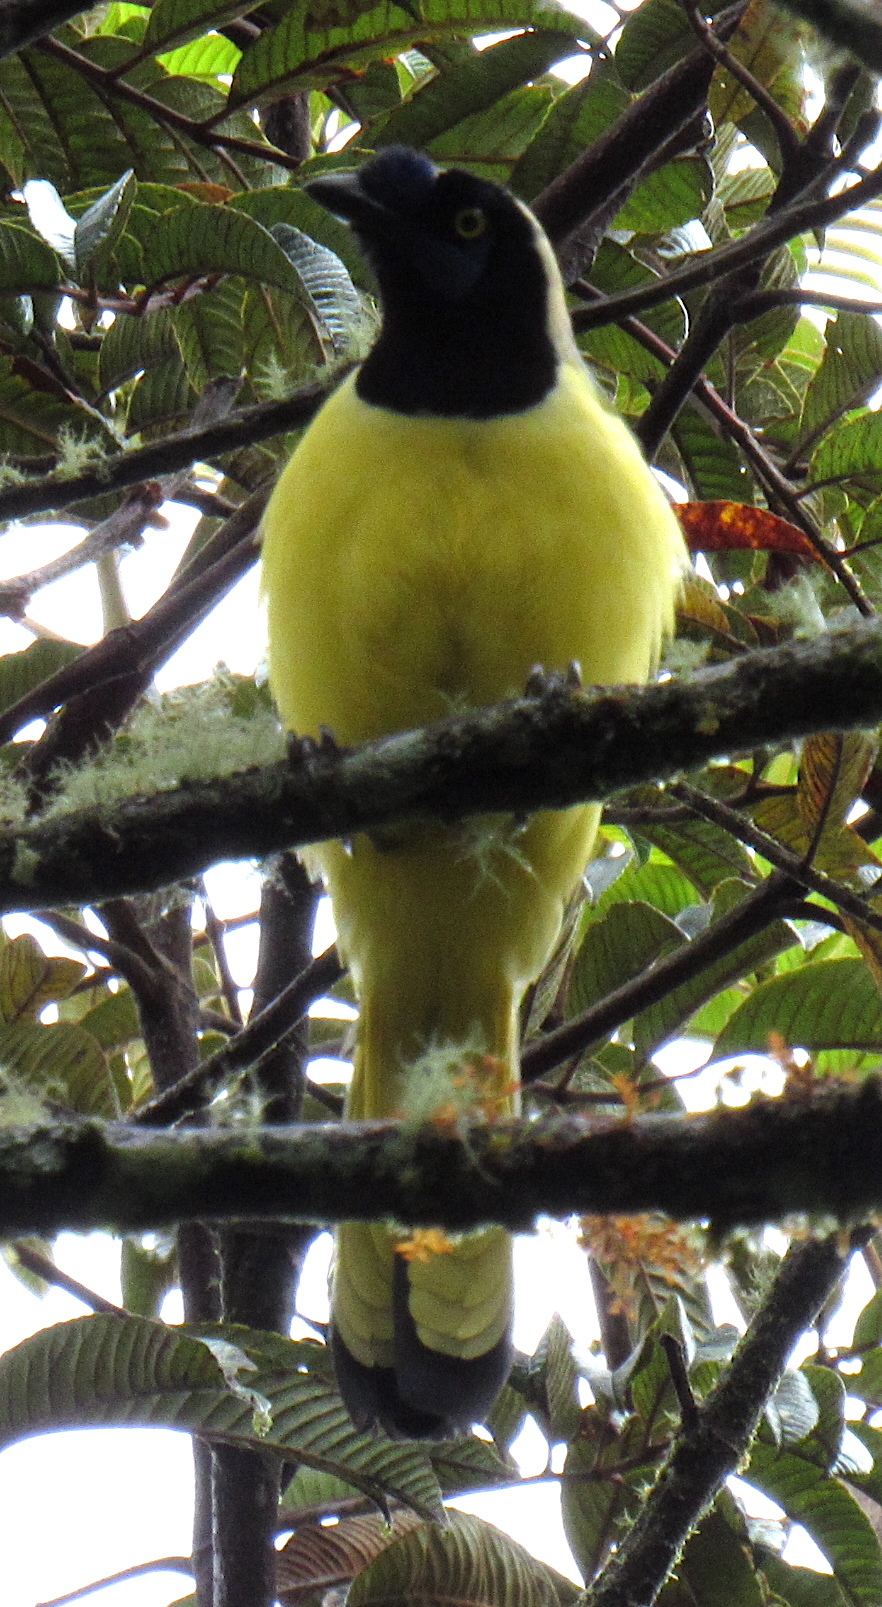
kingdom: Animalia
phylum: Chordata
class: Aves
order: Passeriformes
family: Corvidae
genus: Cyanocorax
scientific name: Cyanocorax yncas
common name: Green jay
